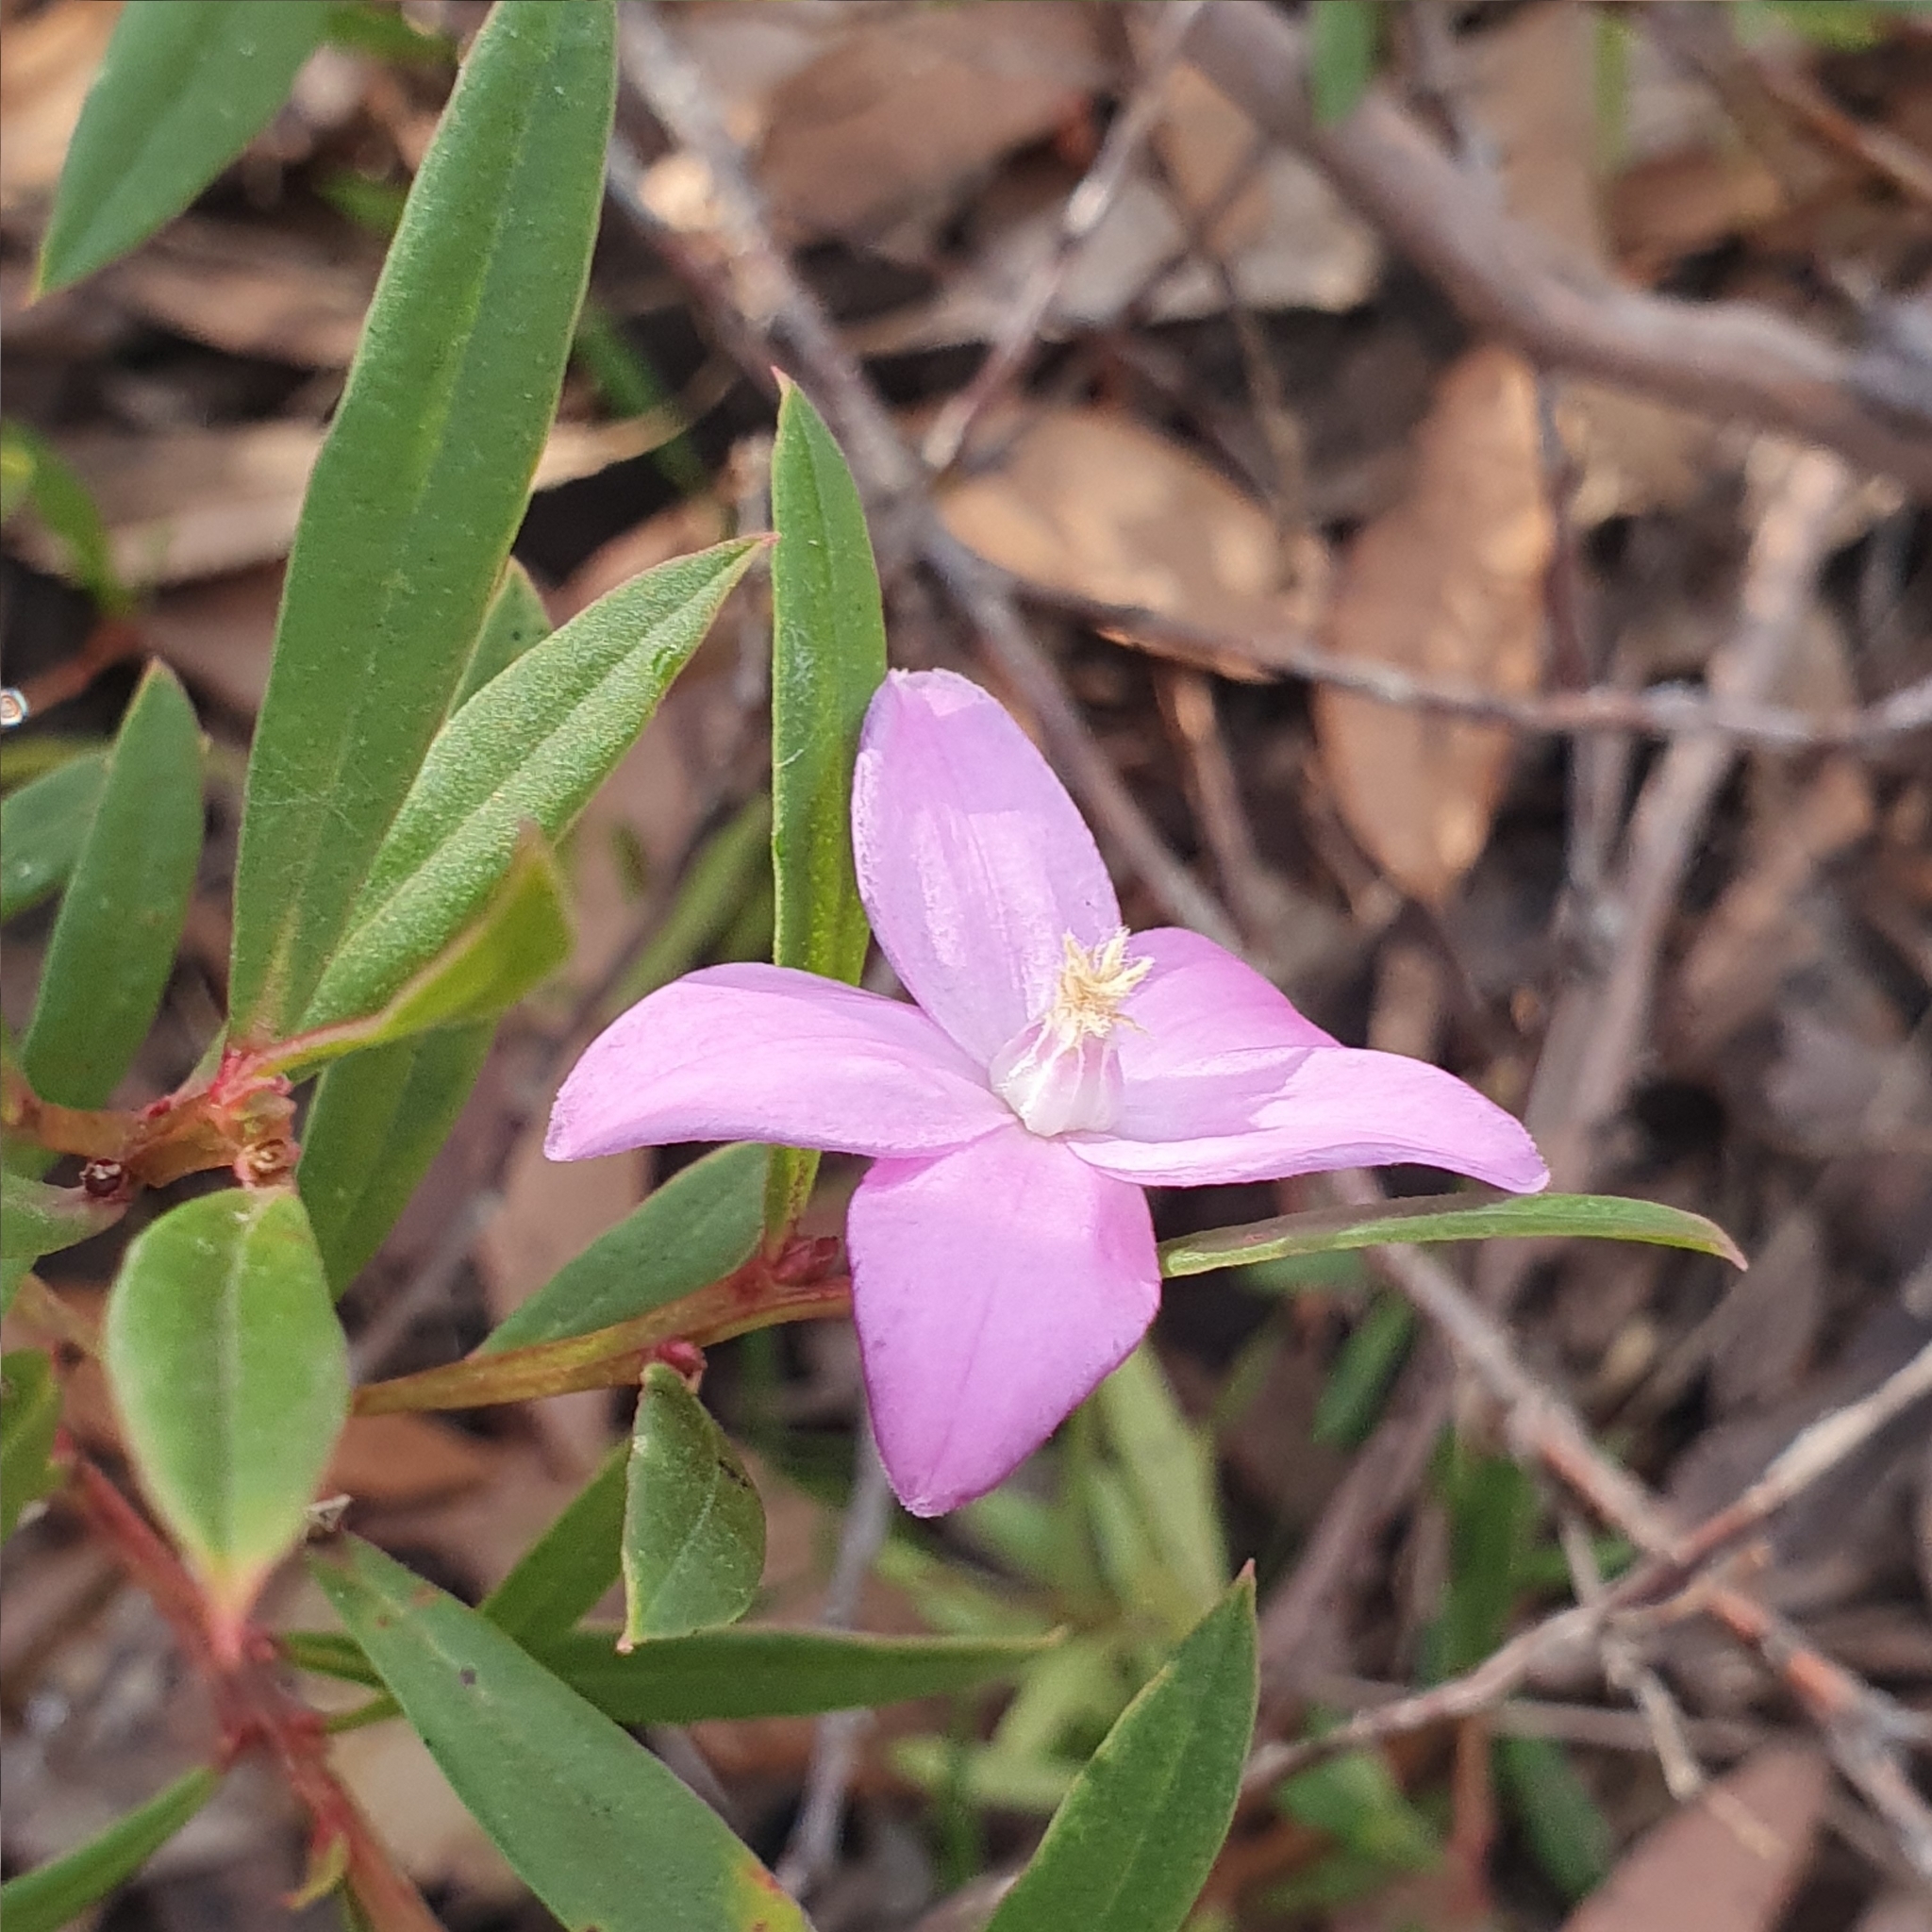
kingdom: Plantae
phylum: Tracheophyta
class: Magnoliopsida
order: Sapindales
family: Rutaceae
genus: Crowea
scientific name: Crowea saligna
